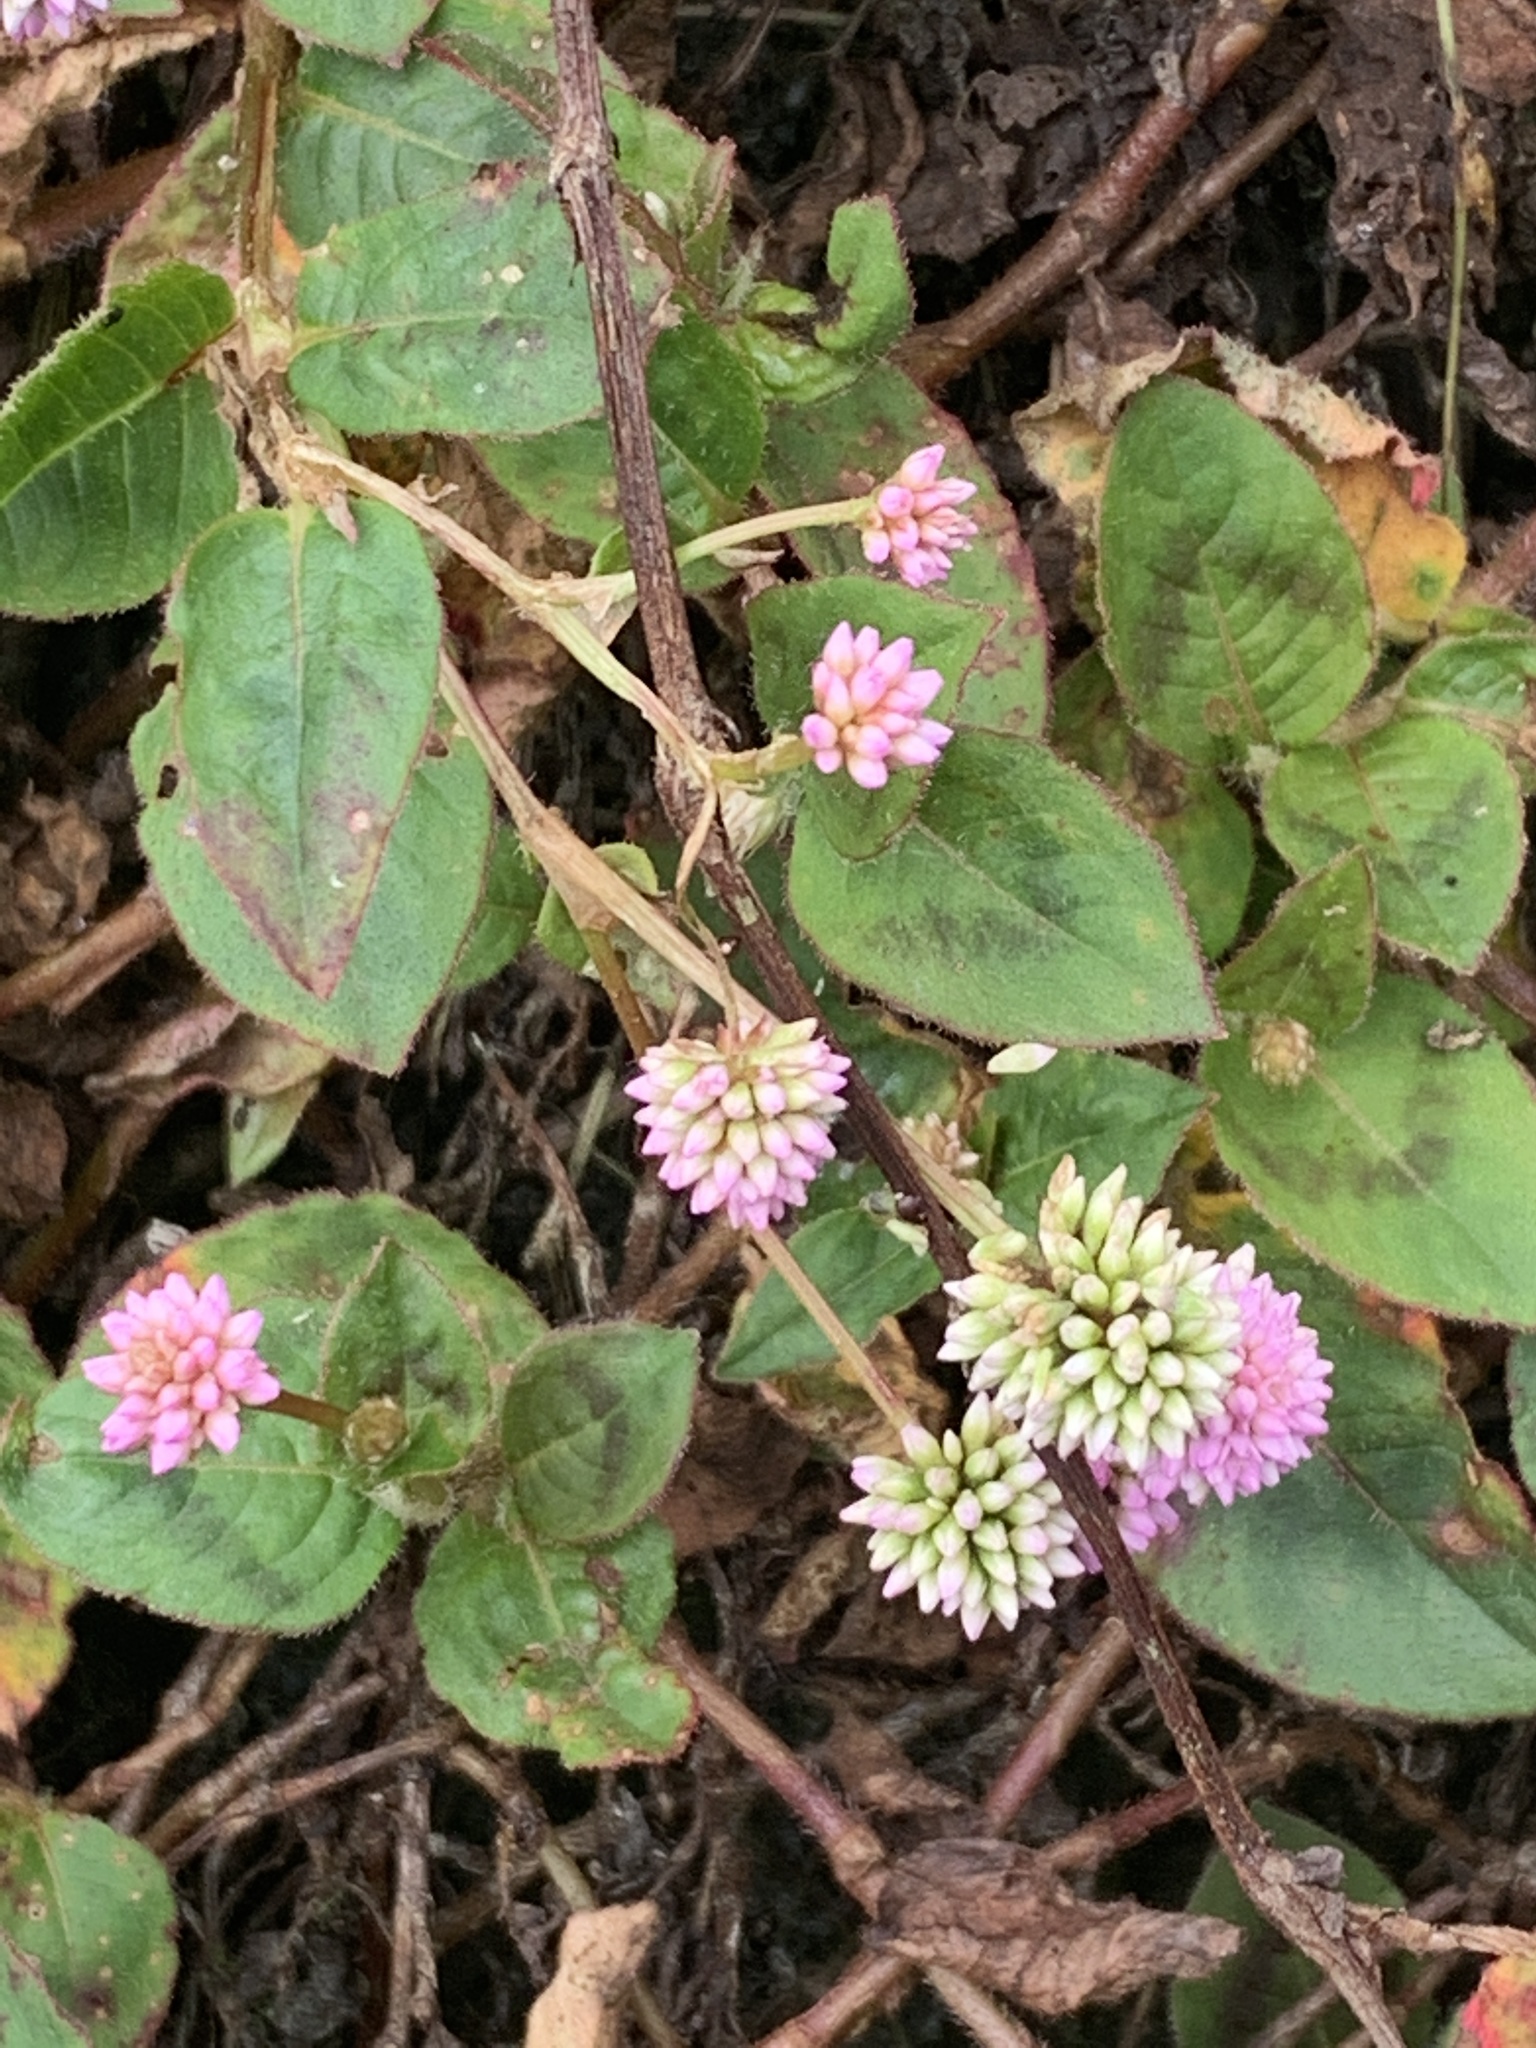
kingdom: Plantae
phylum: Tracheophyta
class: Magnoliopsida
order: Caryophyllales
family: Polygonaceae
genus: Persicaria
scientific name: Persicaria capitata
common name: Pinkhead smartweed
